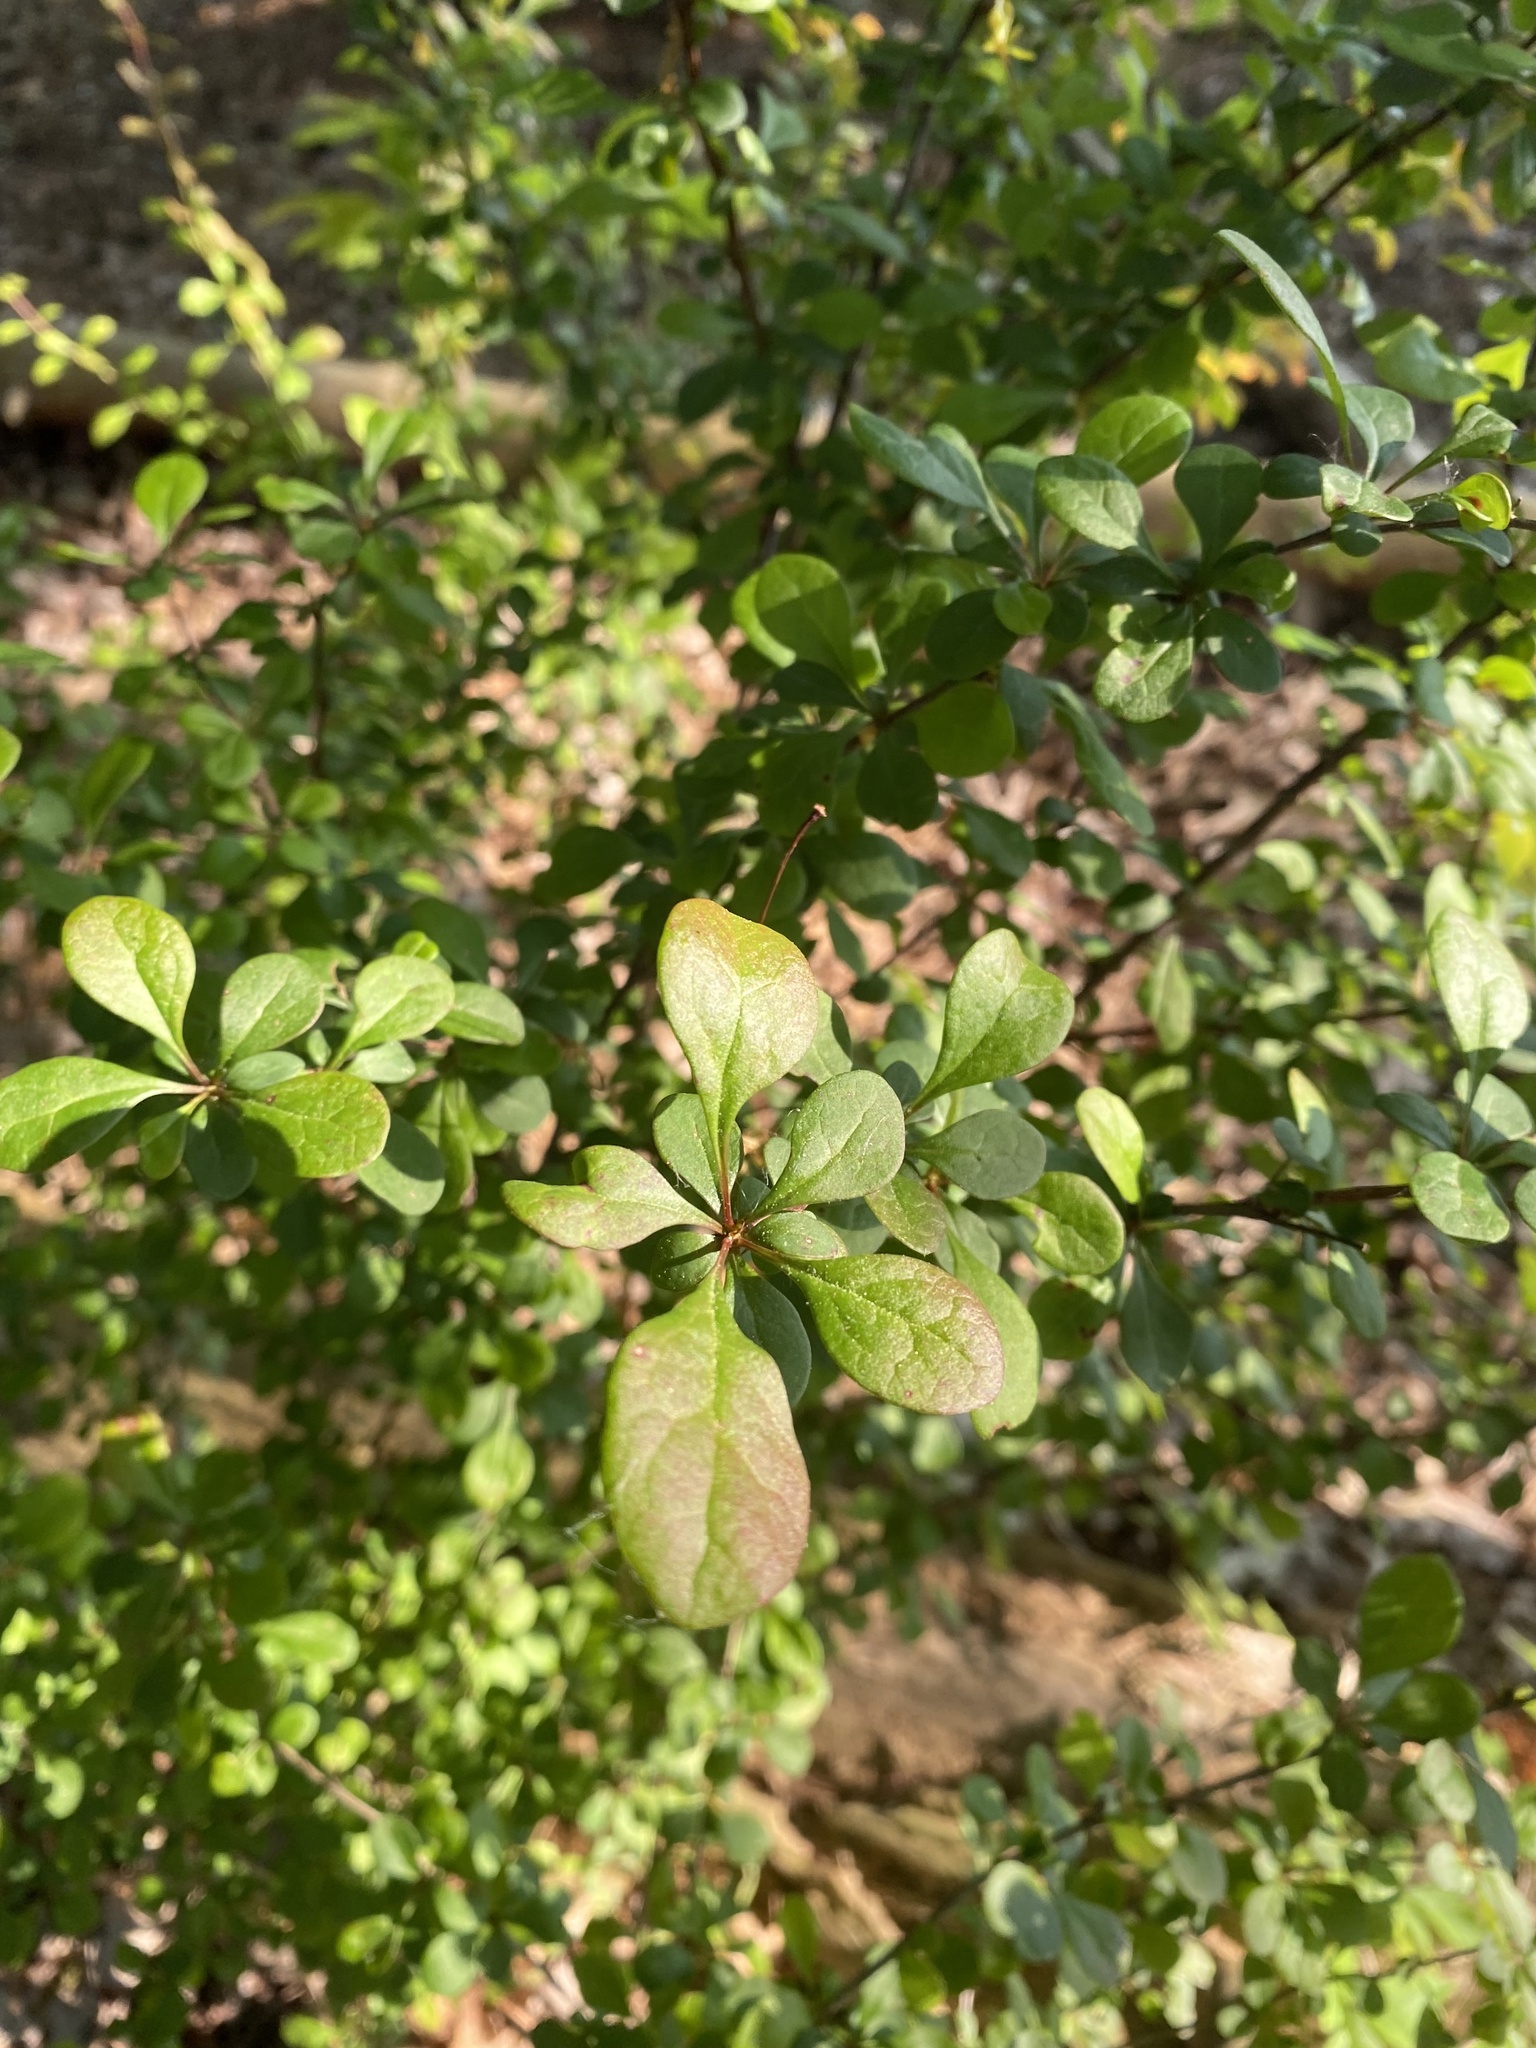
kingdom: Plantae
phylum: Tracheophyta
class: Magnoliopsida
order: Ranunculales
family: Berberidaceae
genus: Berberis
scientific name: Berberis thunbergii
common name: Japanese barberry
